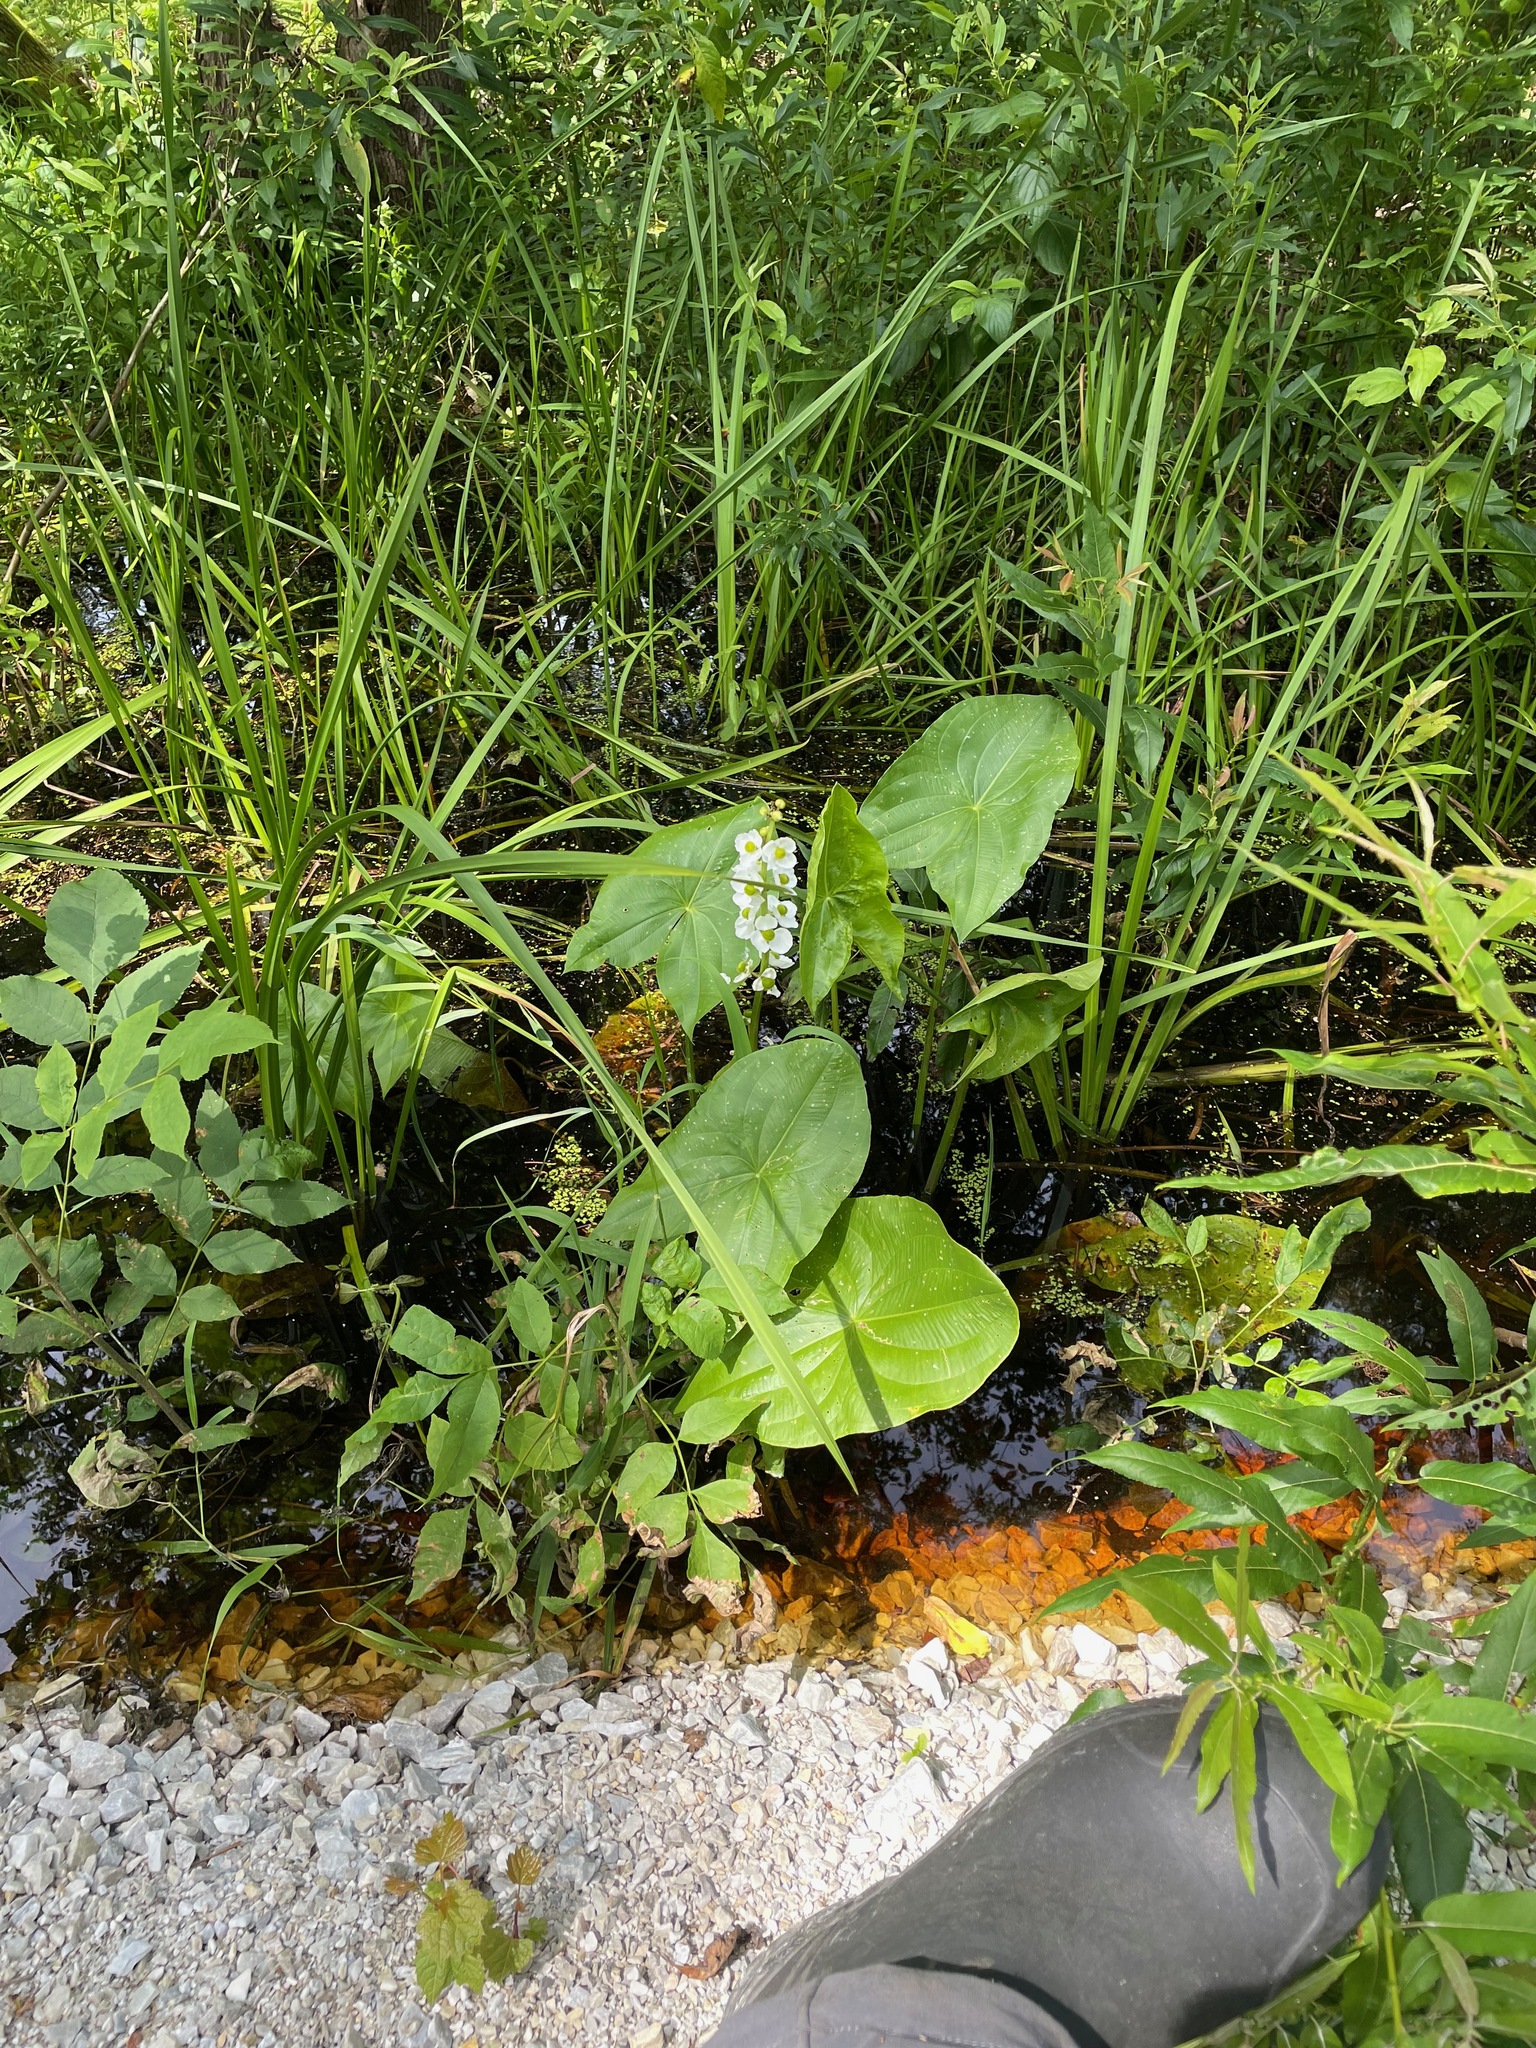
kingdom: Plantae
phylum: Tracheophyta
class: Liliopsida
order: Alismatales
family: Alismataceae
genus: Sagittaria
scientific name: Sagittaria latifolia
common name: Duck-potato
